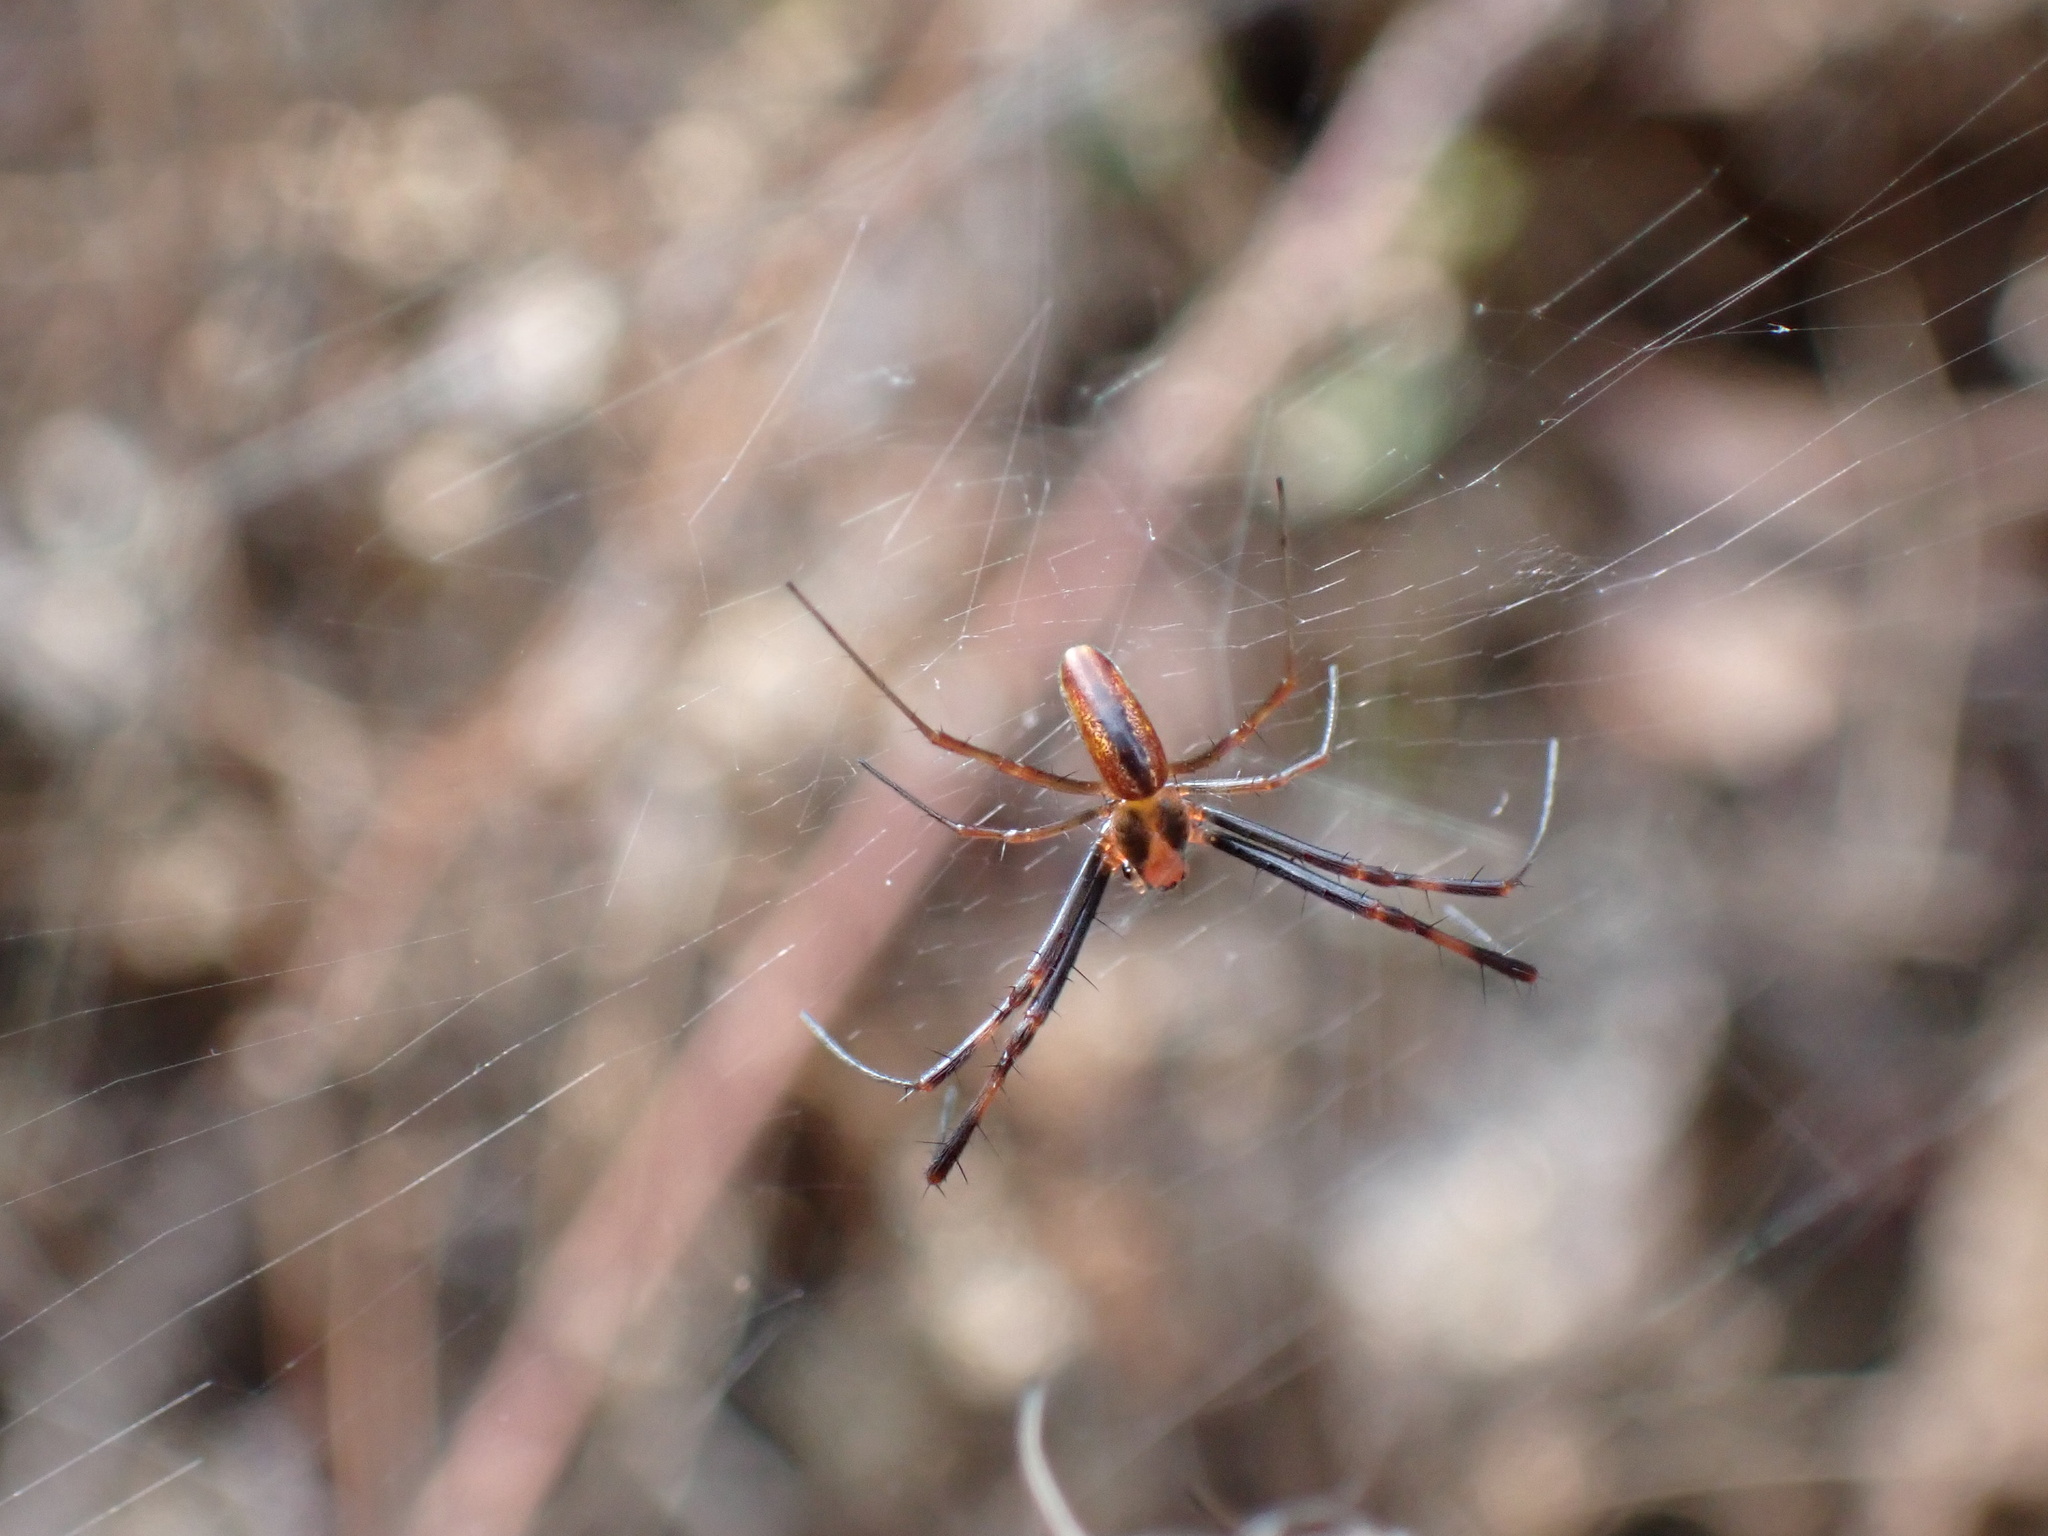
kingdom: Animalia
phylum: Arthropoda
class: Arachnida
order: Araneae
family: Araneidae
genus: Trichonephila
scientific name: Trichonephila clavipes
